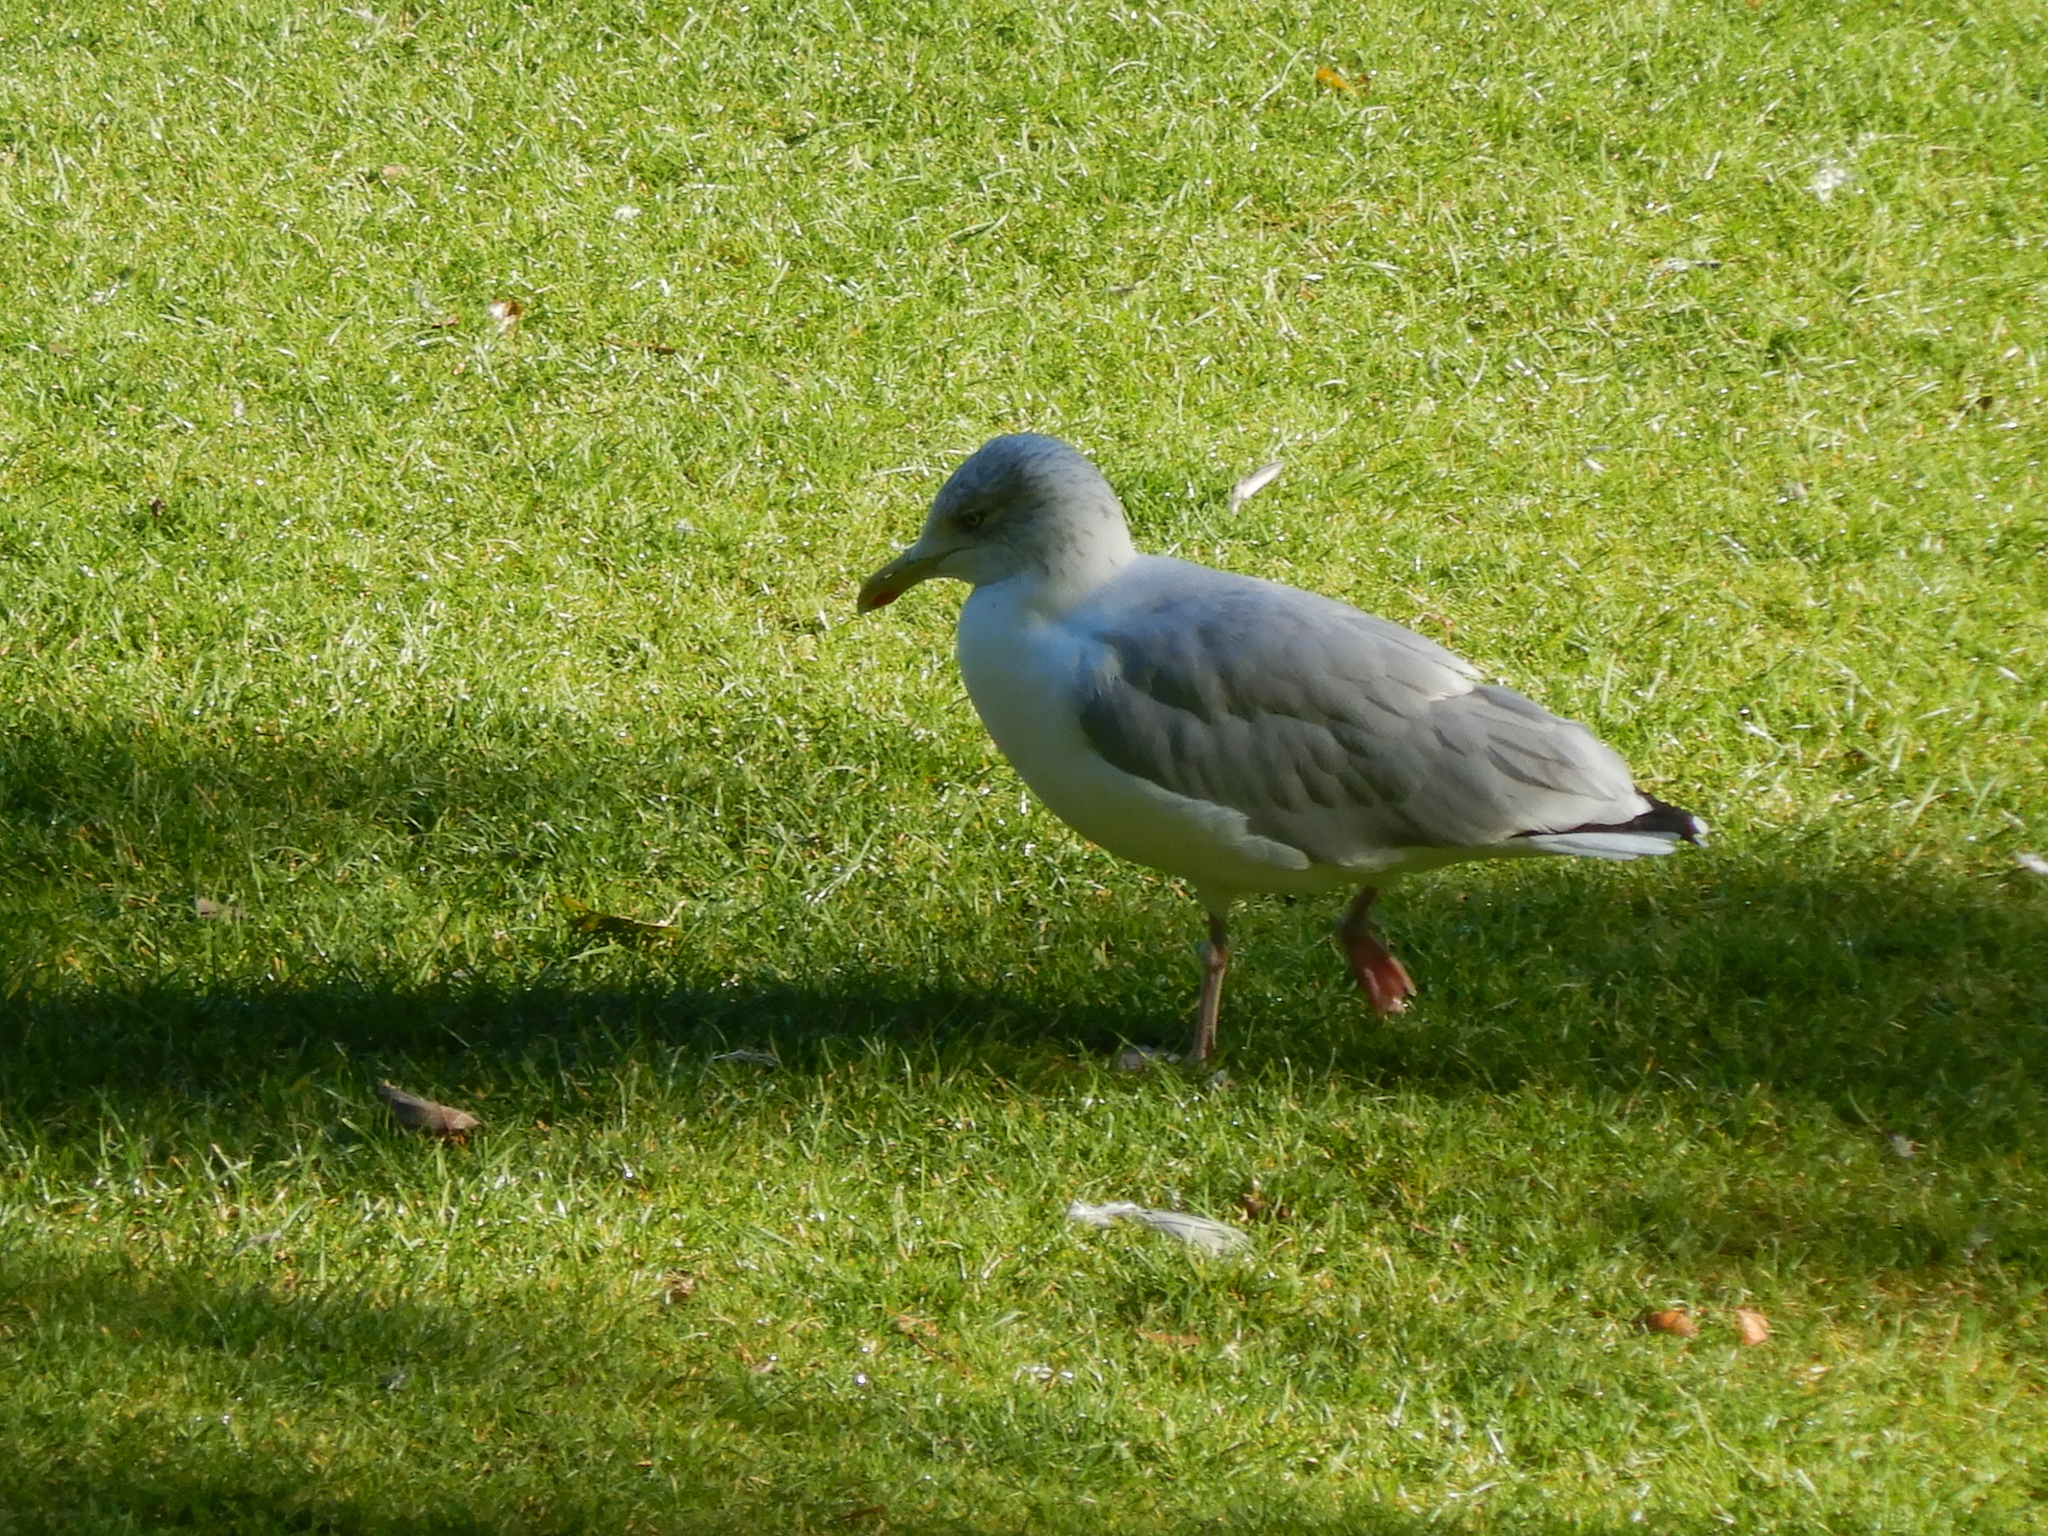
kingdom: Animalia
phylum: Chordata
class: Aves
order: Charadriiformes
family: Laridae
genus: Larus
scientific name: Larus argentatus
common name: Herring gull
